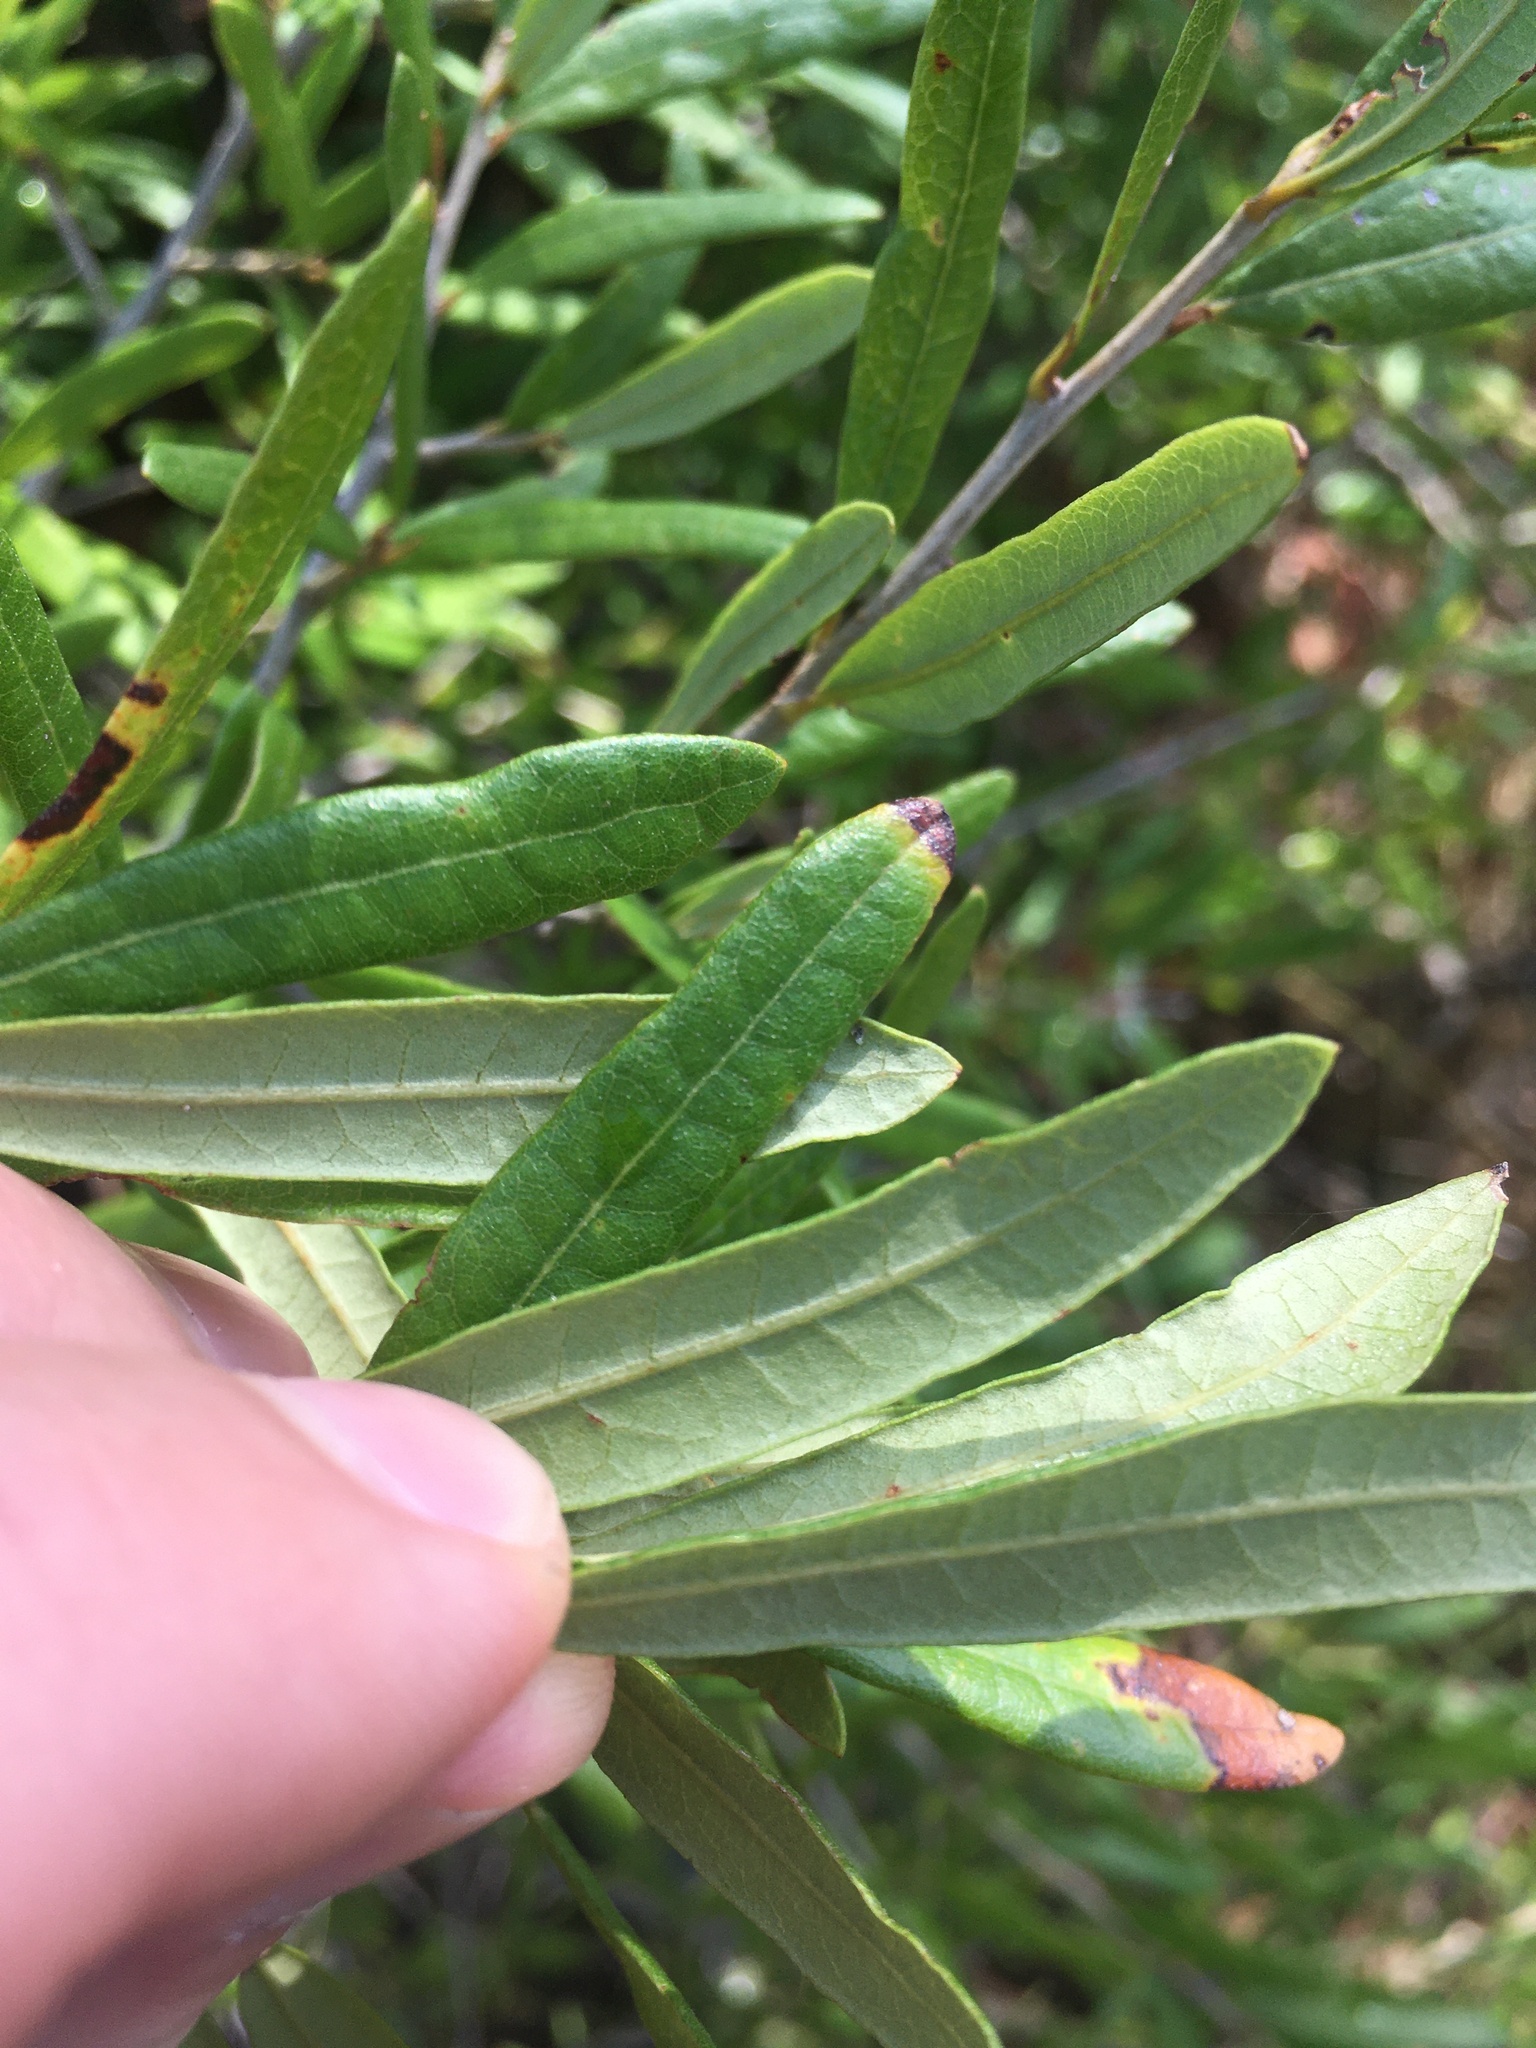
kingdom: Plantae
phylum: Tracheophyta
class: Magnoliopsida
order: Fagales
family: Fagaceae
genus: Quercus
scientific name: Quercus virginiana
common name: Southern live oak
